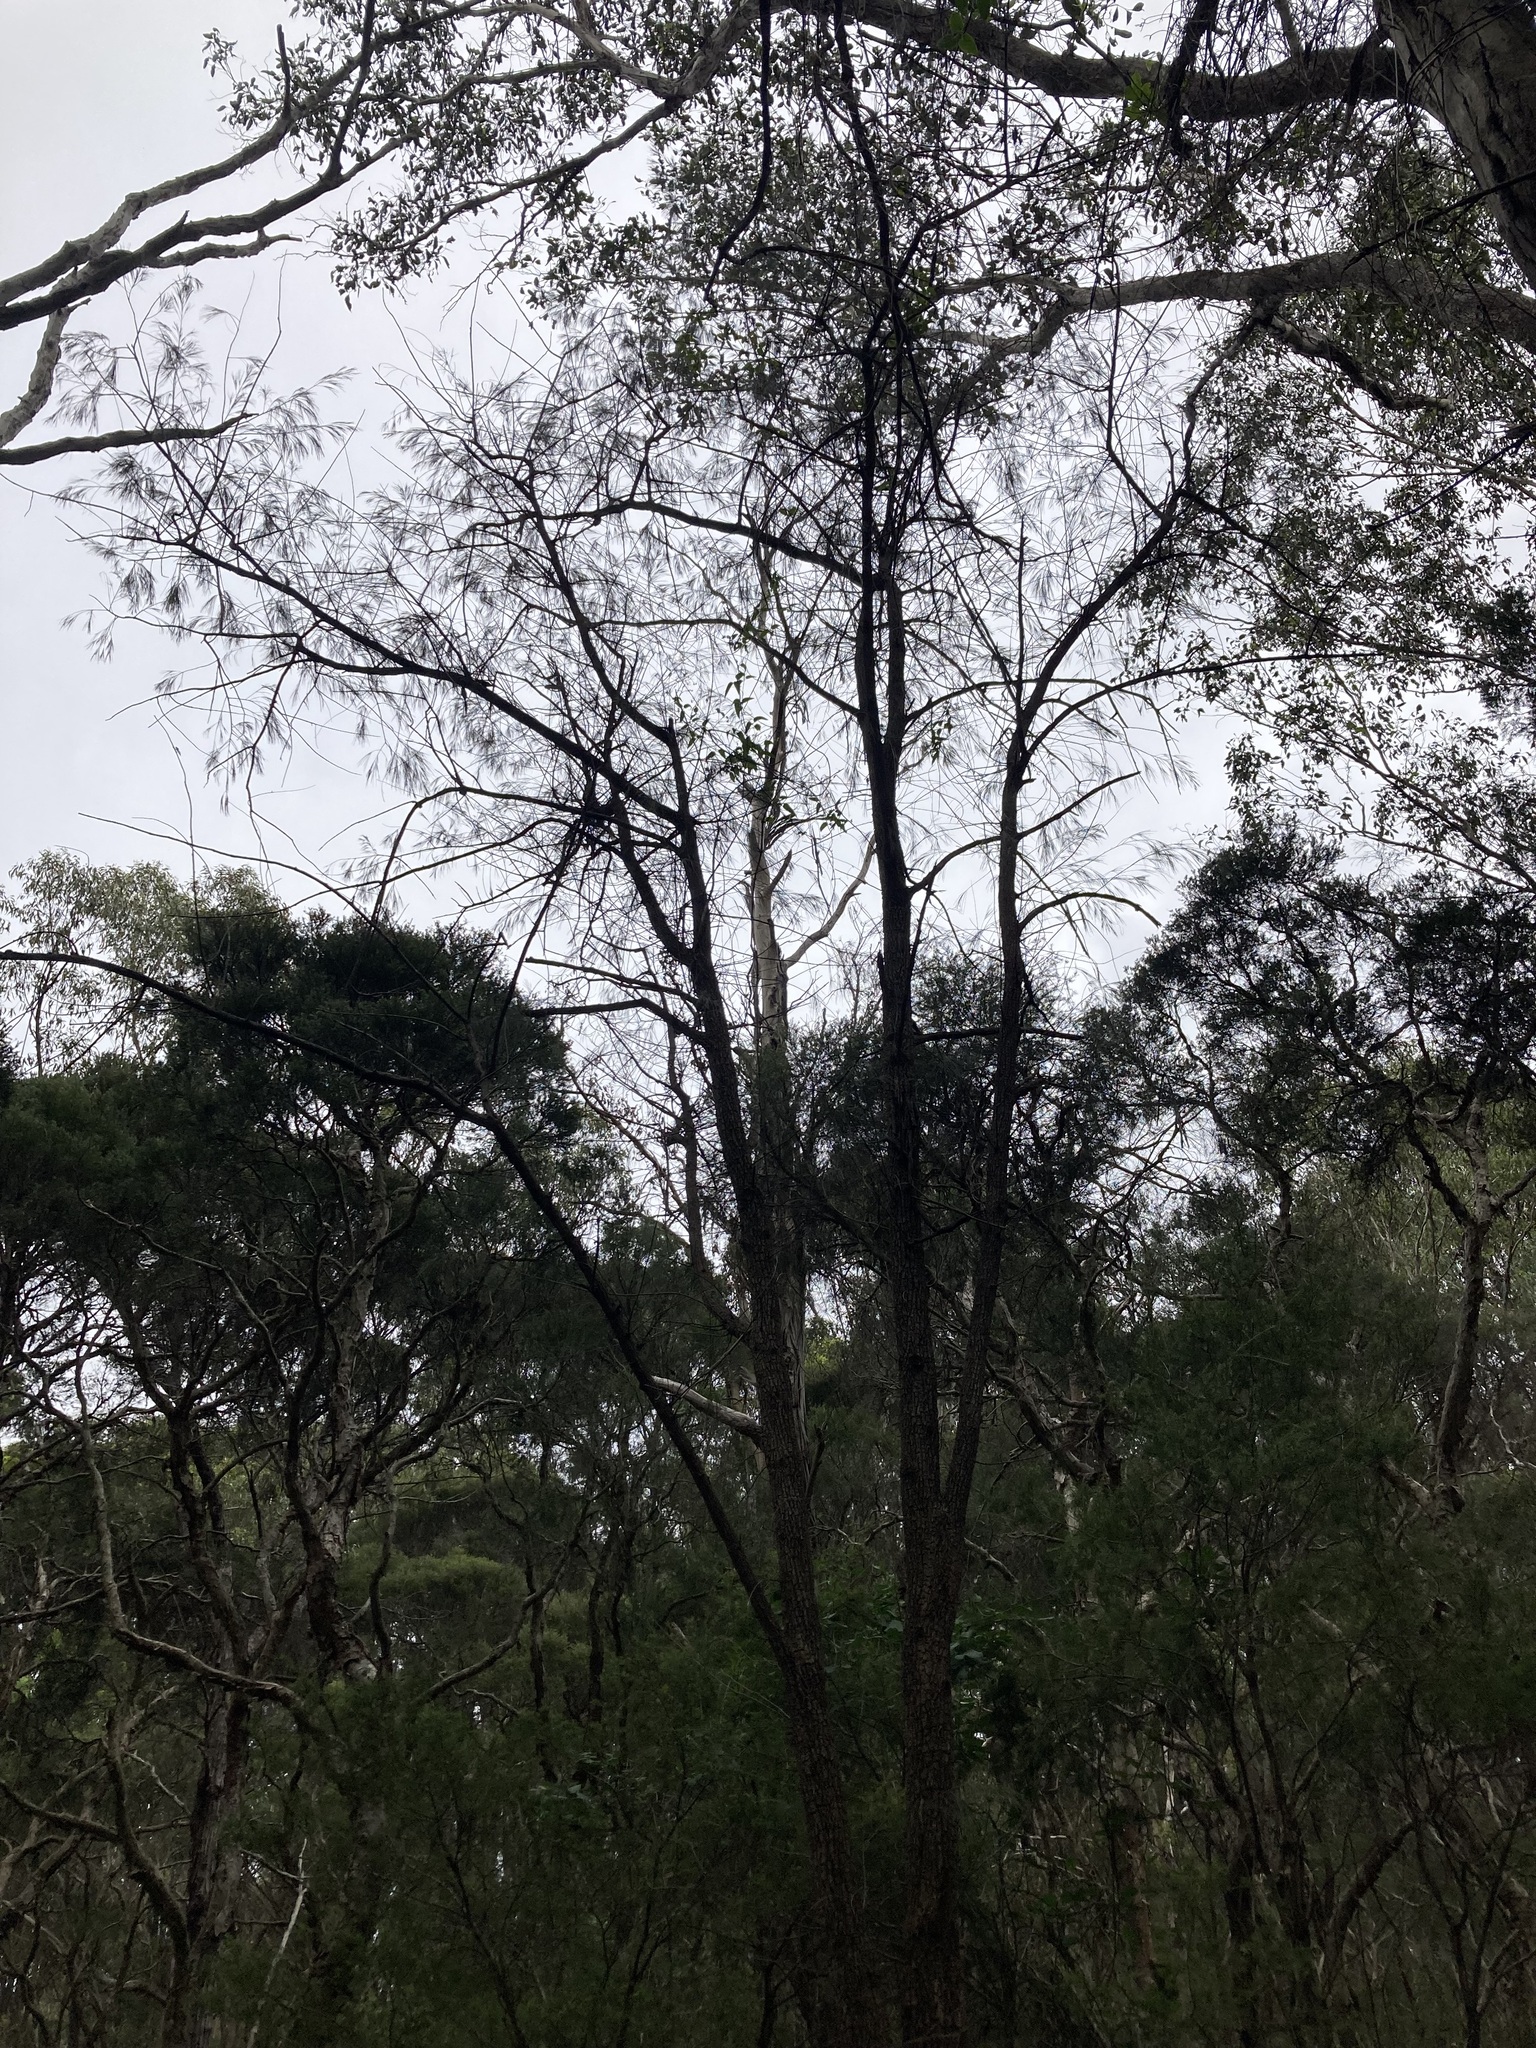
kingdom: Plantae
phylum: Tracheophyta
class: Magnoliopsida
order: Fagales
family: Casuarinaceae
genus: Allocasuarina
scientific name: Allocasuarina torulosa
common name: Forest-oak
